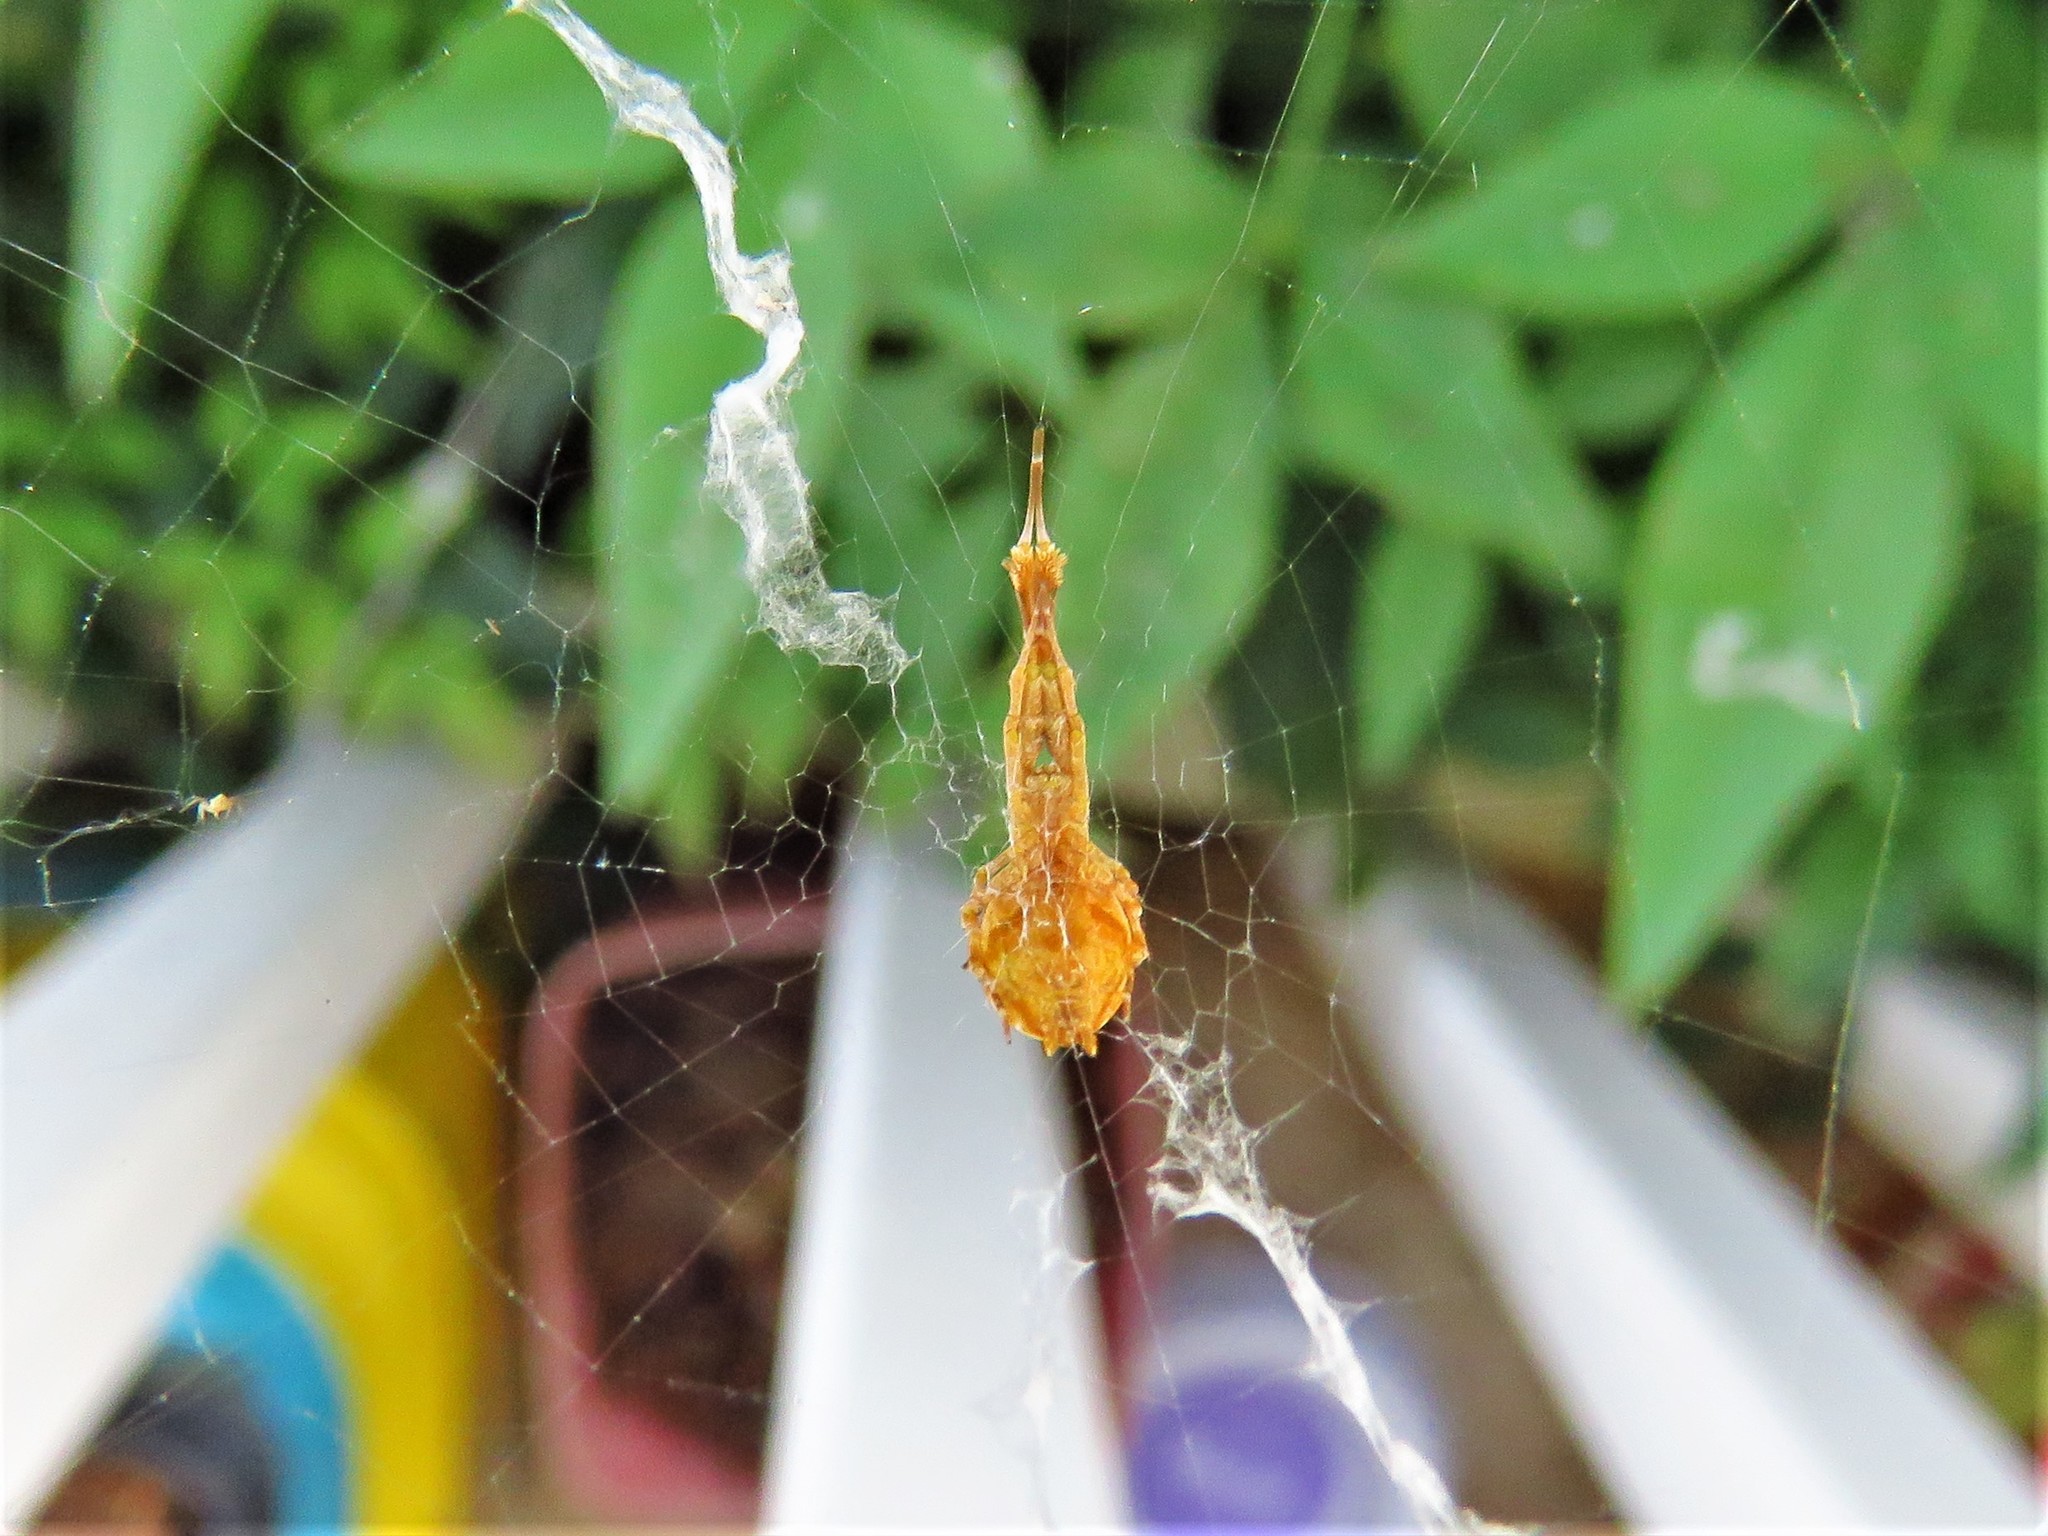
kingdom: Animalia
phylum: Arthropoda
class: Arachnida
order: Araneae
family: Uloboridae
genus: Uloborus
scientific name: Uloborus glomosus
